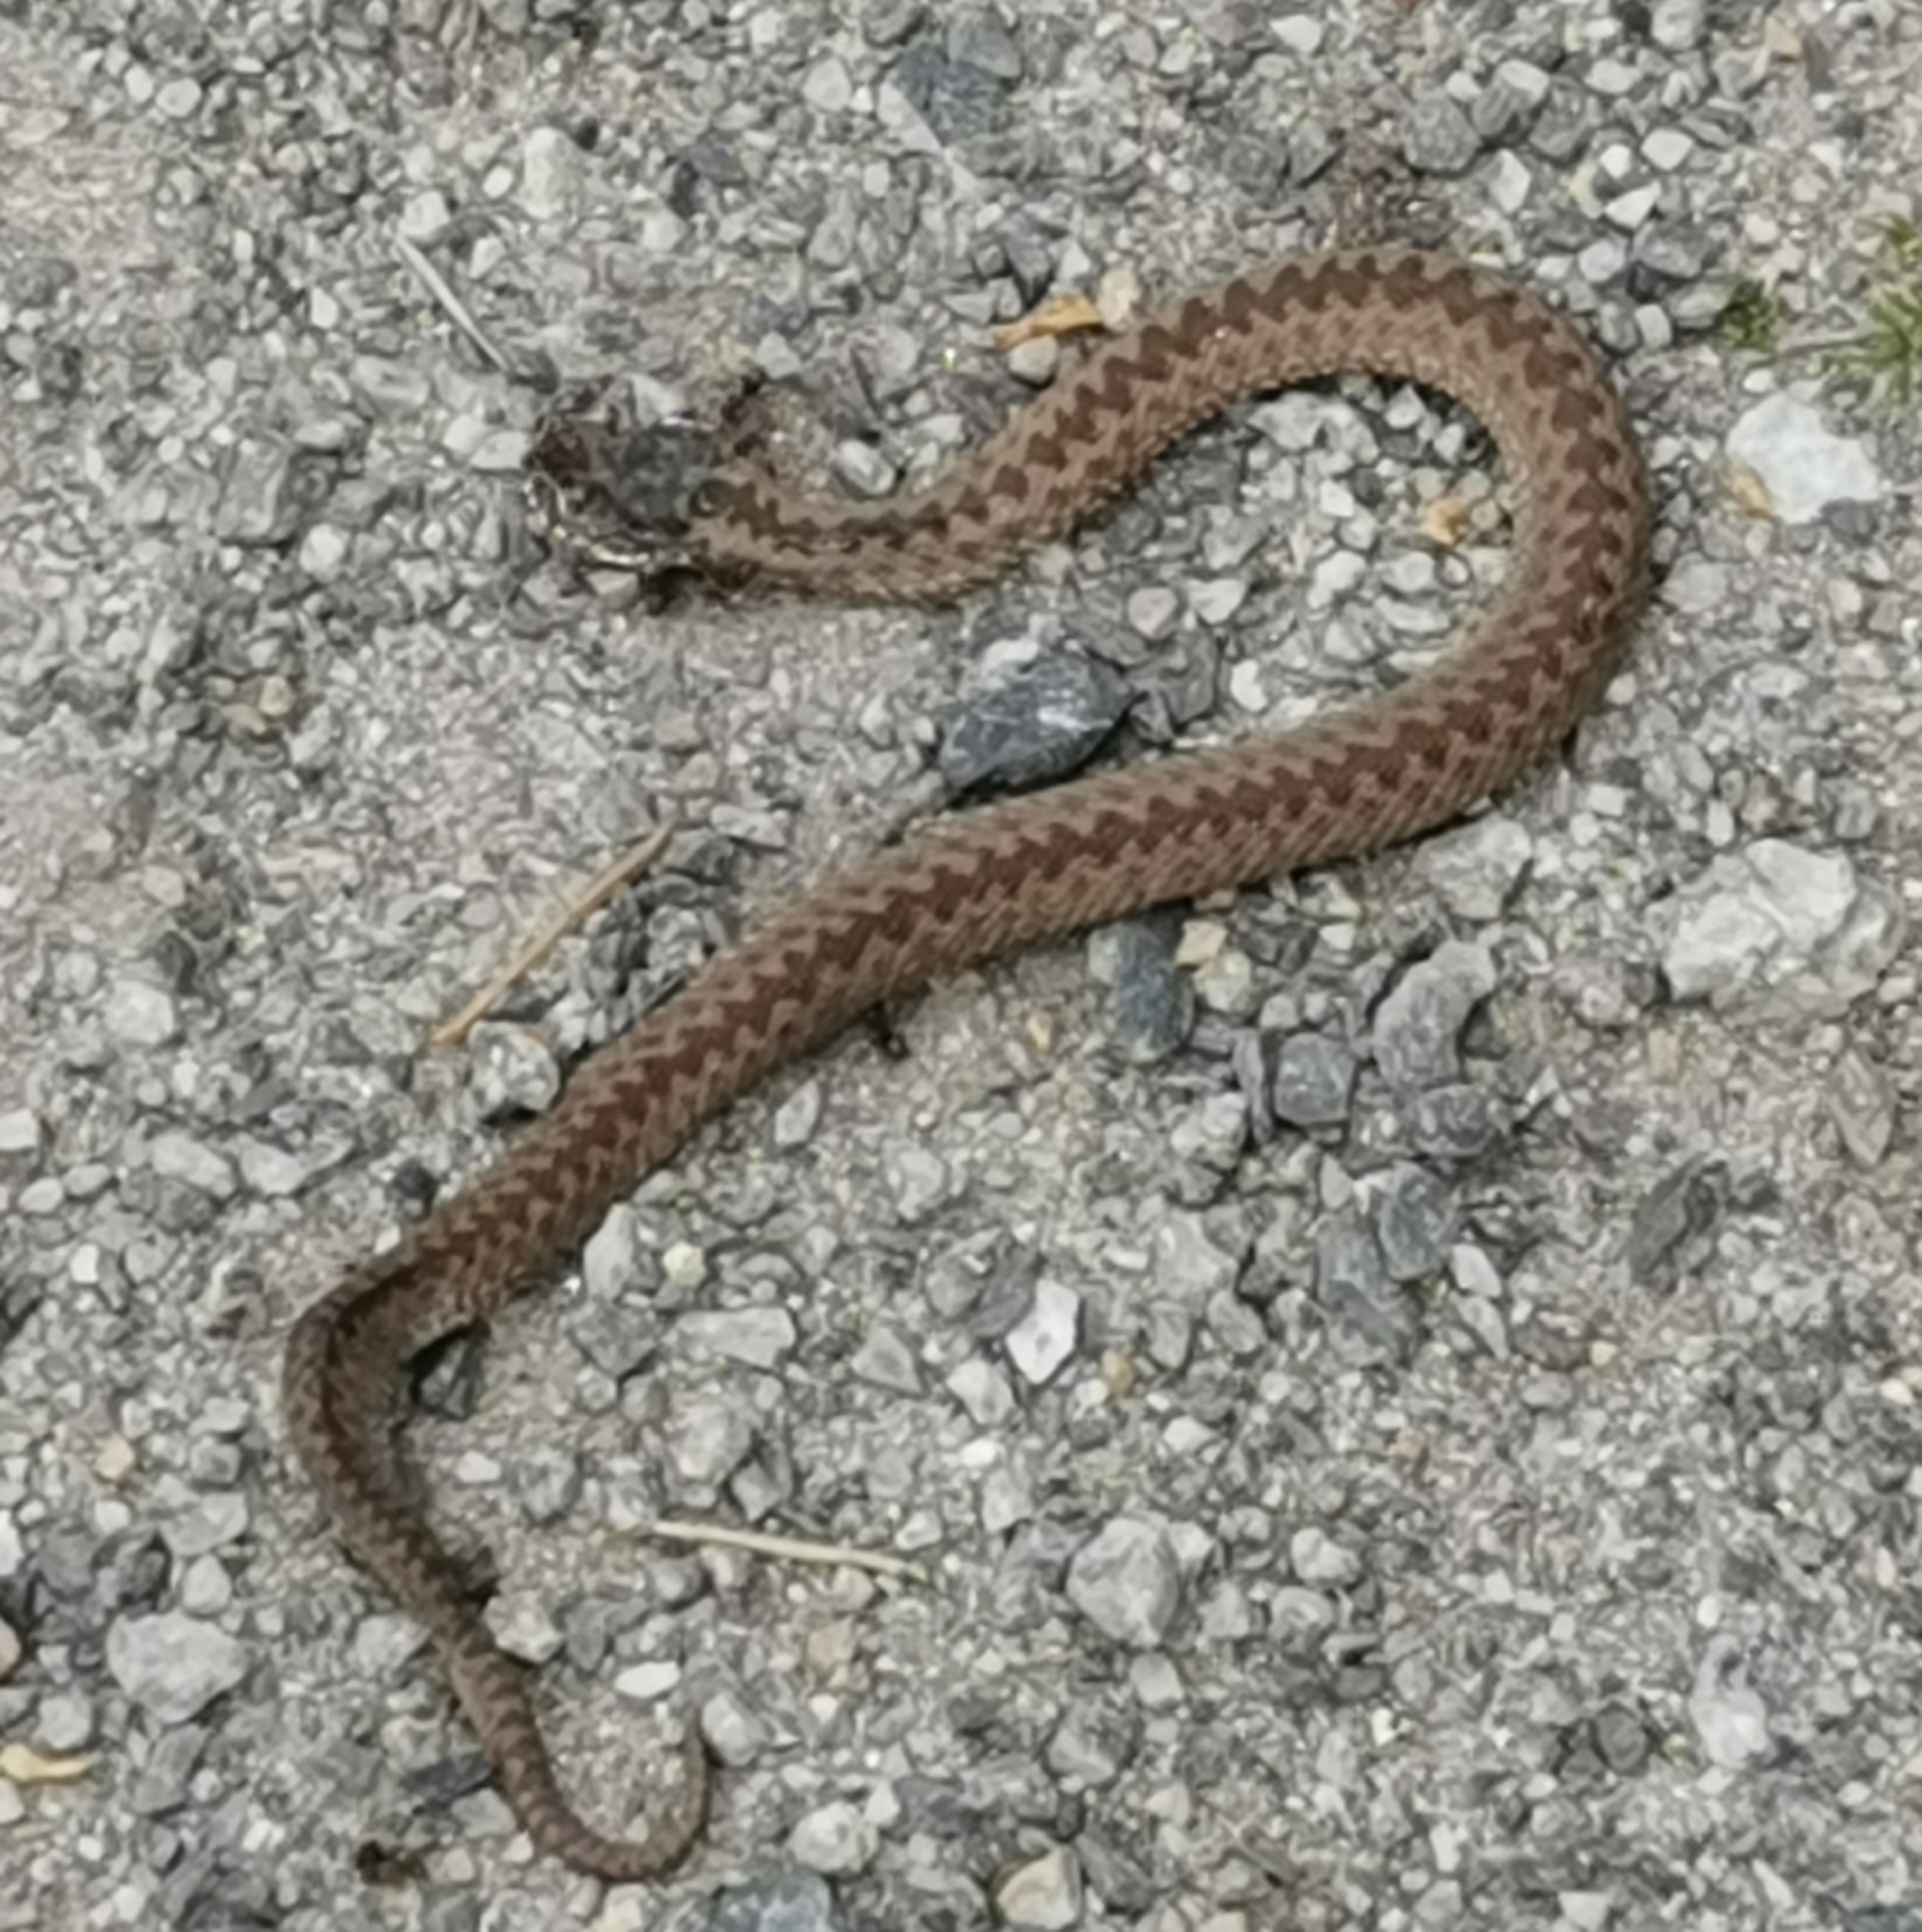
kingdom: Animalia
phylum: Chordata
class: Squamata
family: Viperidae
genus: Vipera
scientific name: Vipera berus
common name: Adder
